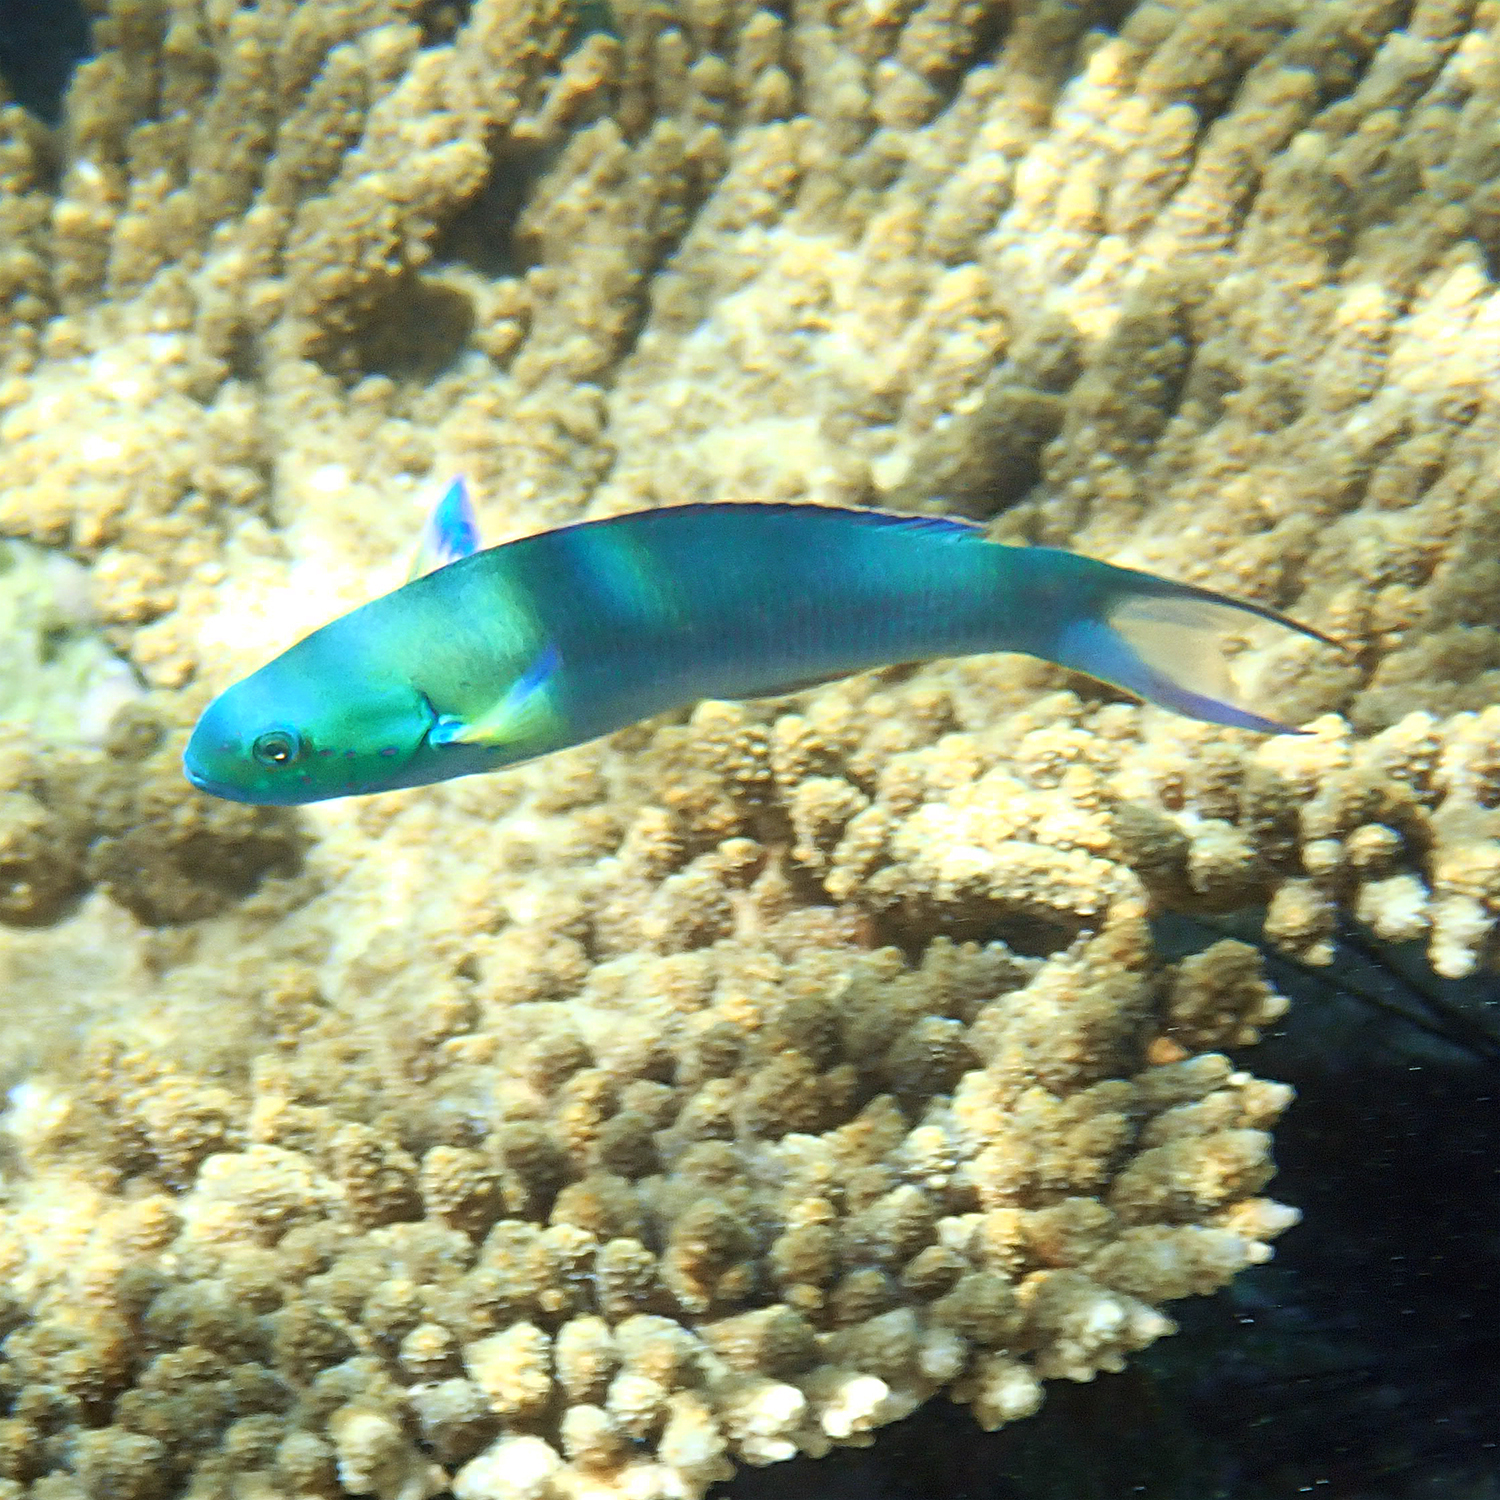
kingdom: Animalia
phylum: Chordata
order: Perciformes
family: Labridae
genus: Thalassoma
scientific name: Thalassoma amblycephalum
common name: Bluehead wrasse
